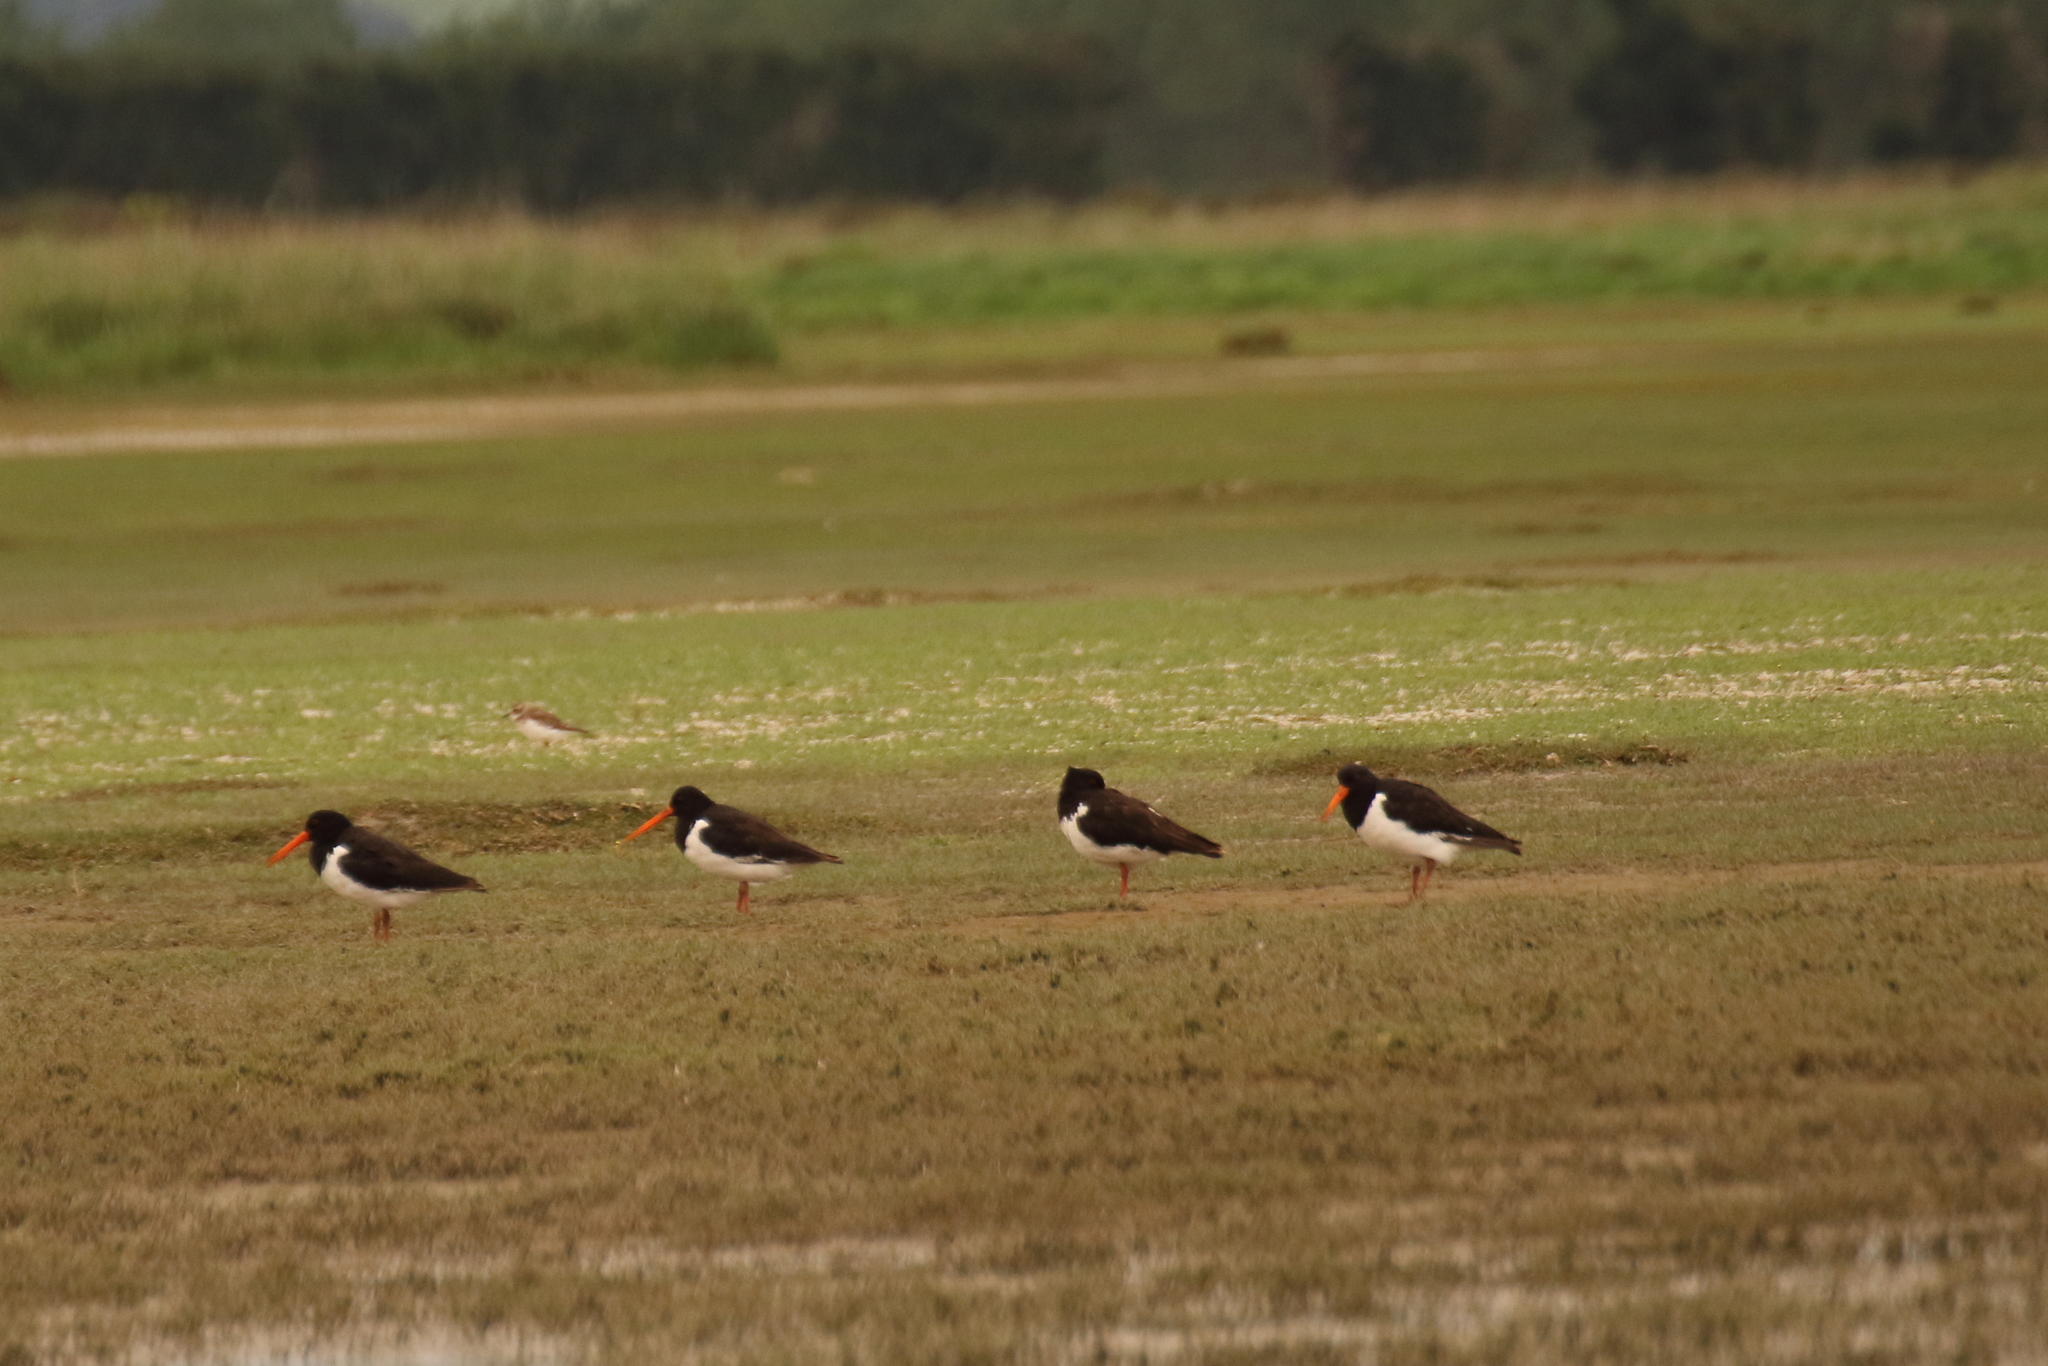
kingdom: Animalia
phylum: Chordata
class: Aves
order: Charadriiformes
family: Haematopodidae
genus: Haematopus
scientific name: Haematopus finschi
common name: South island oystercatcher
